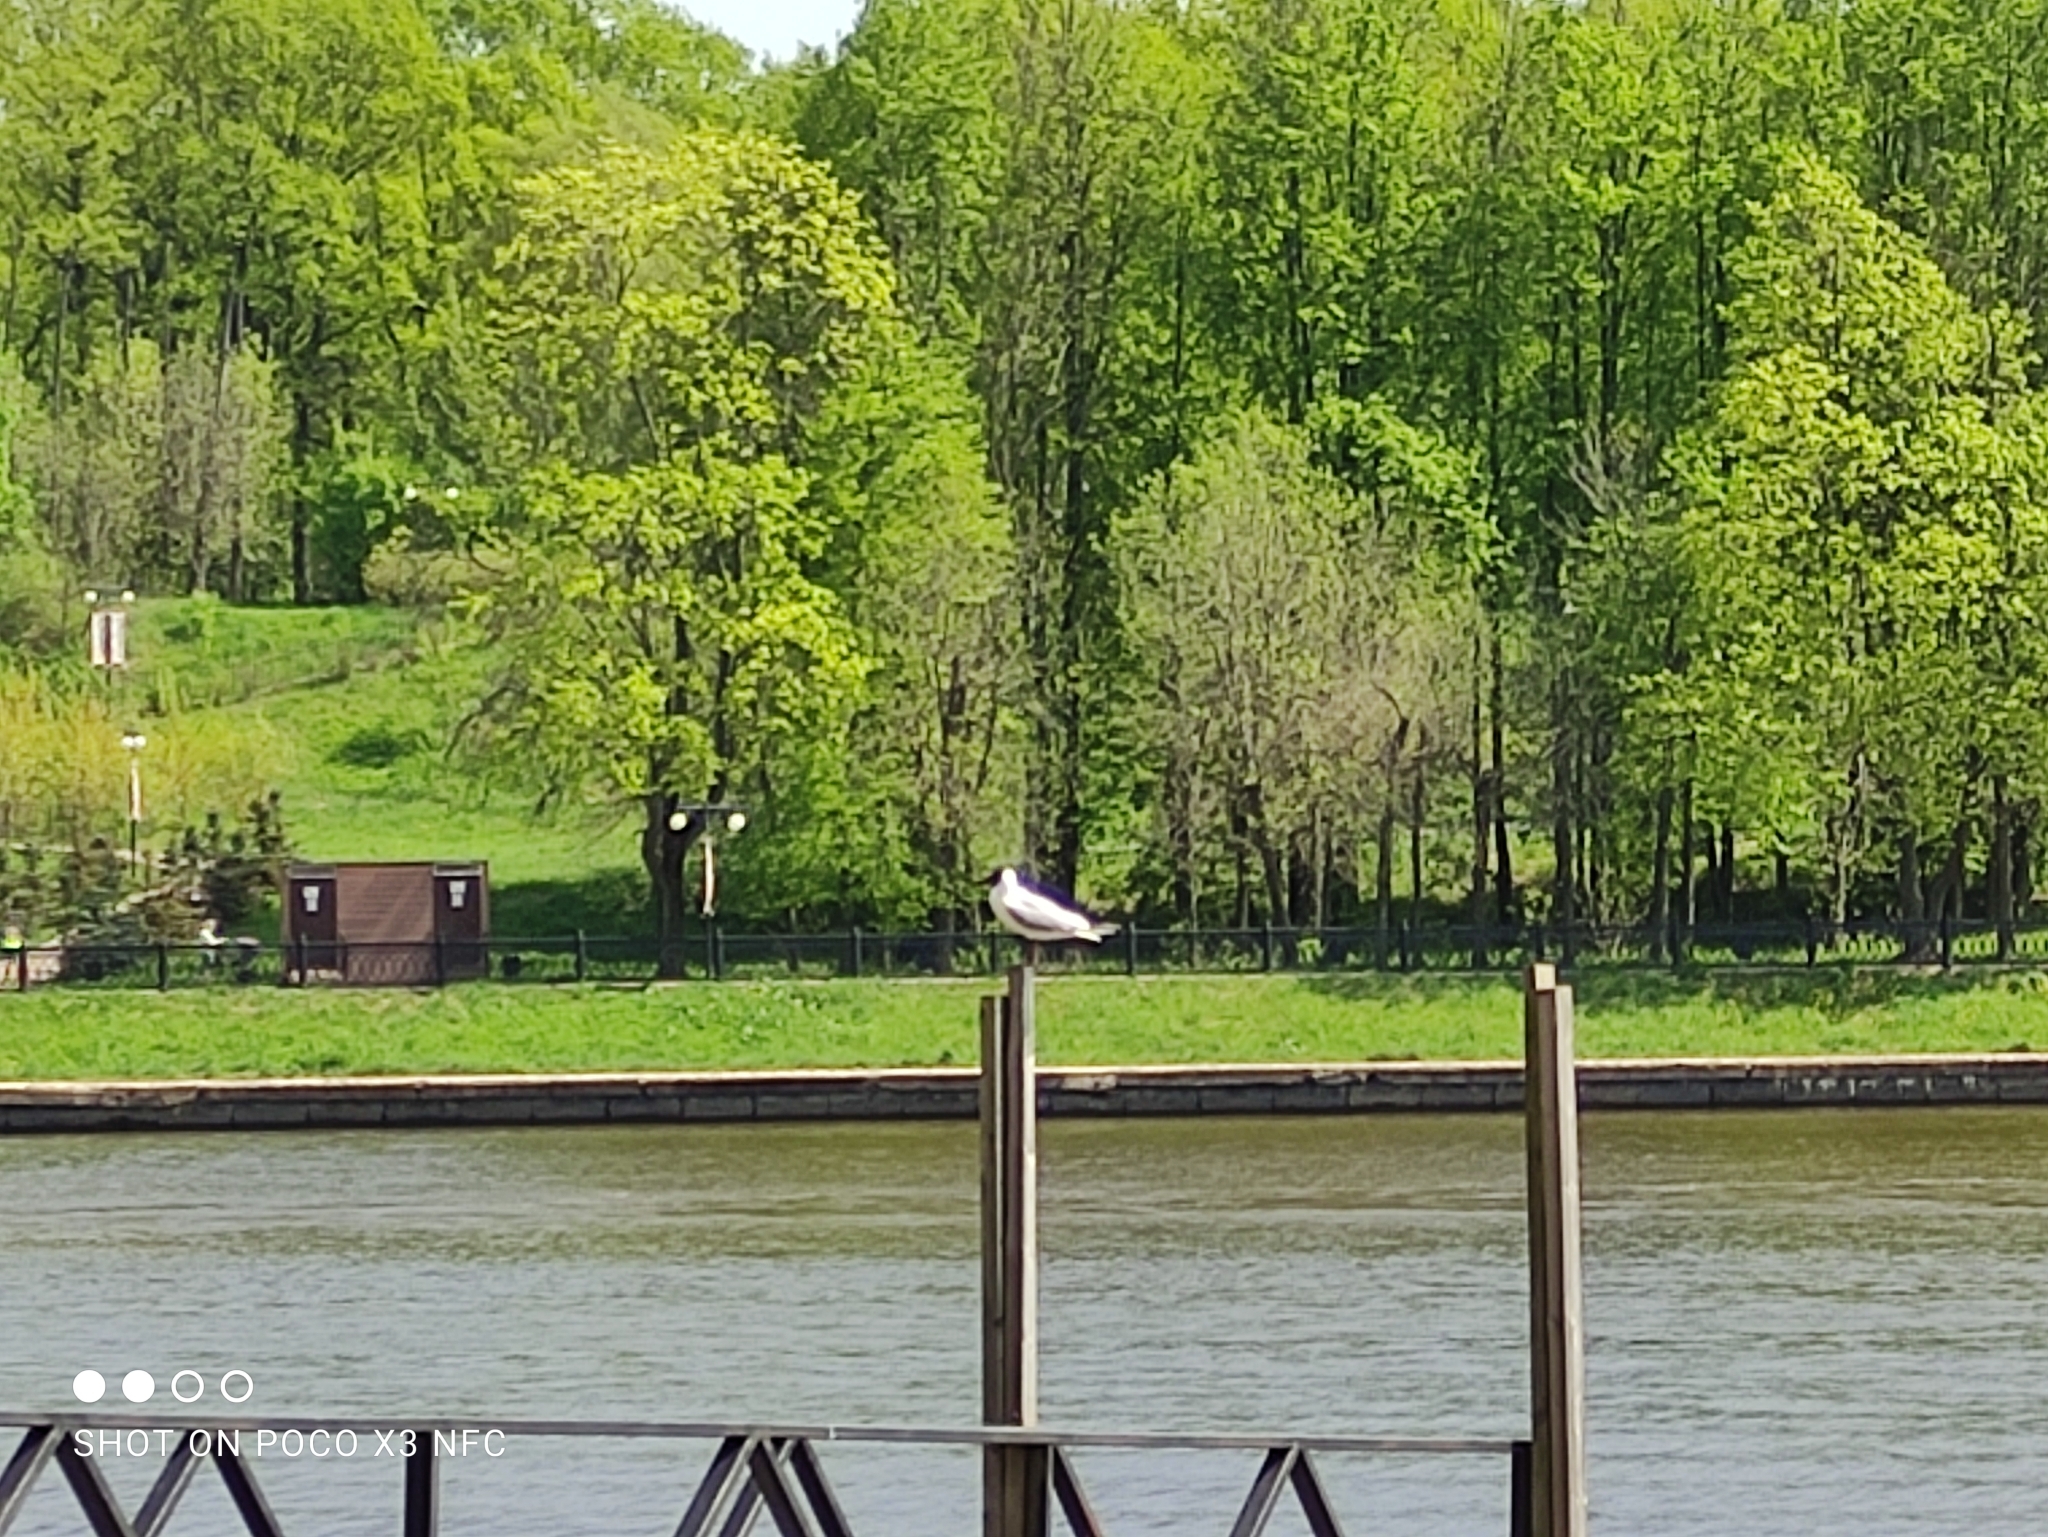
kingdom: Animalia
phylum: Chordata
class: Aves
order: Charadriiformes
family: Laridae
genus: Chroicocephalus
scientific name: Chroicocephalus ridibundus
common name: Black-headed gull
